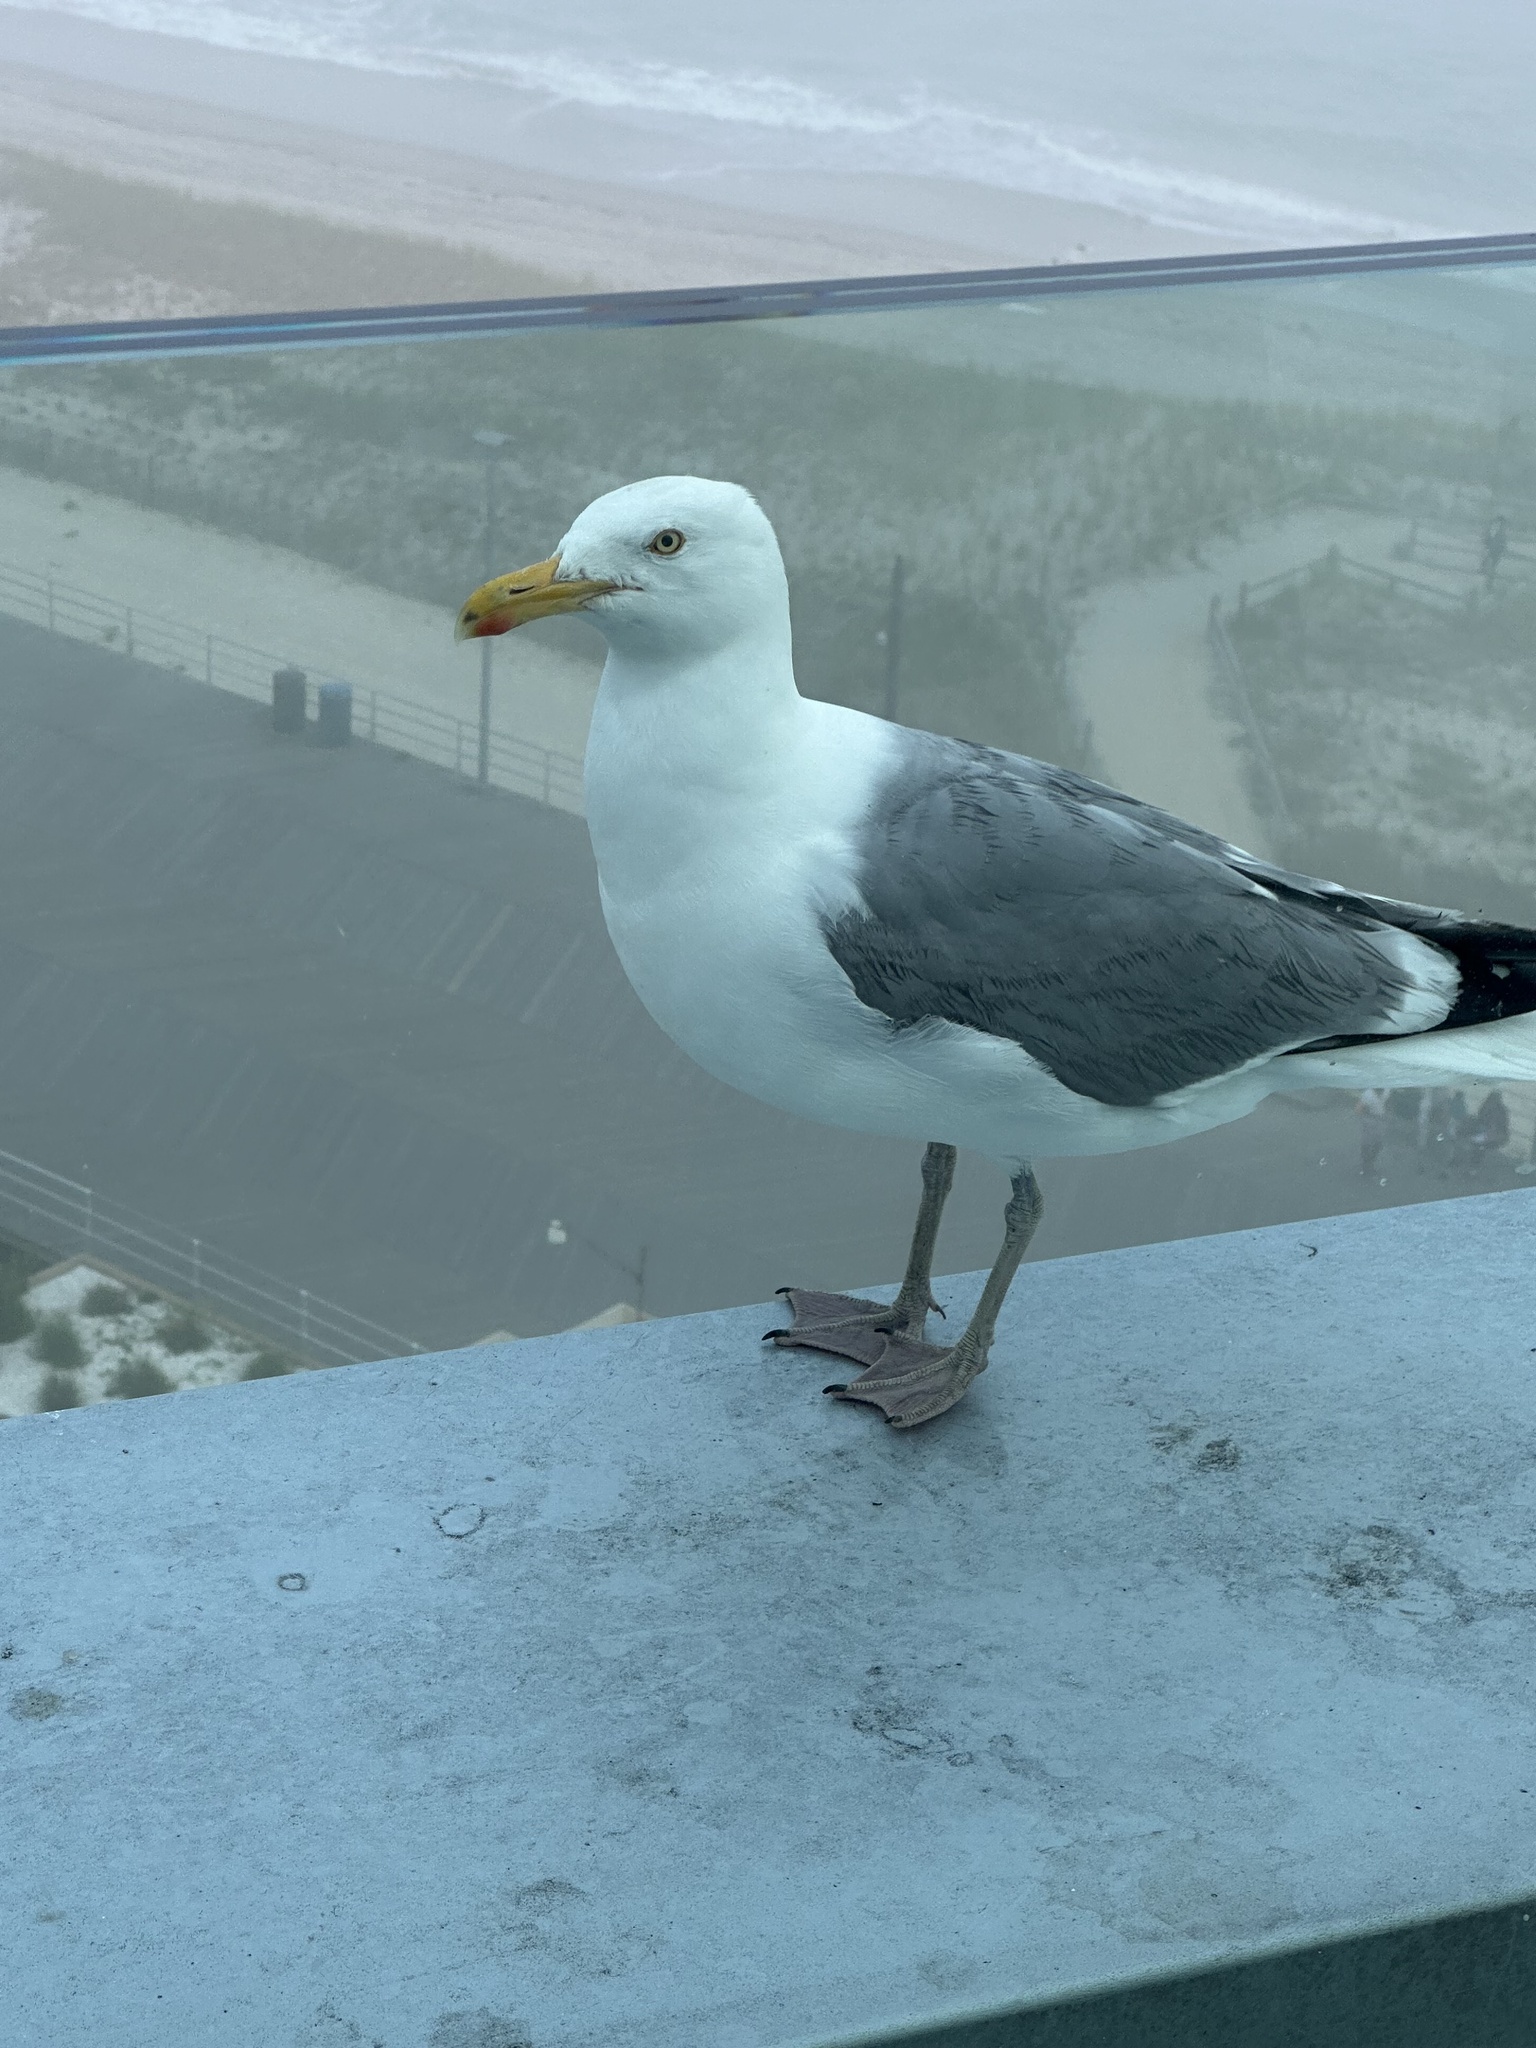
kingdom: Animalia
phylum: Chordata
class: Aves
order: Charadriiformes
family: Laridae
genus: Larus
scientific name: Larus argentatus
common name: Herring gull
